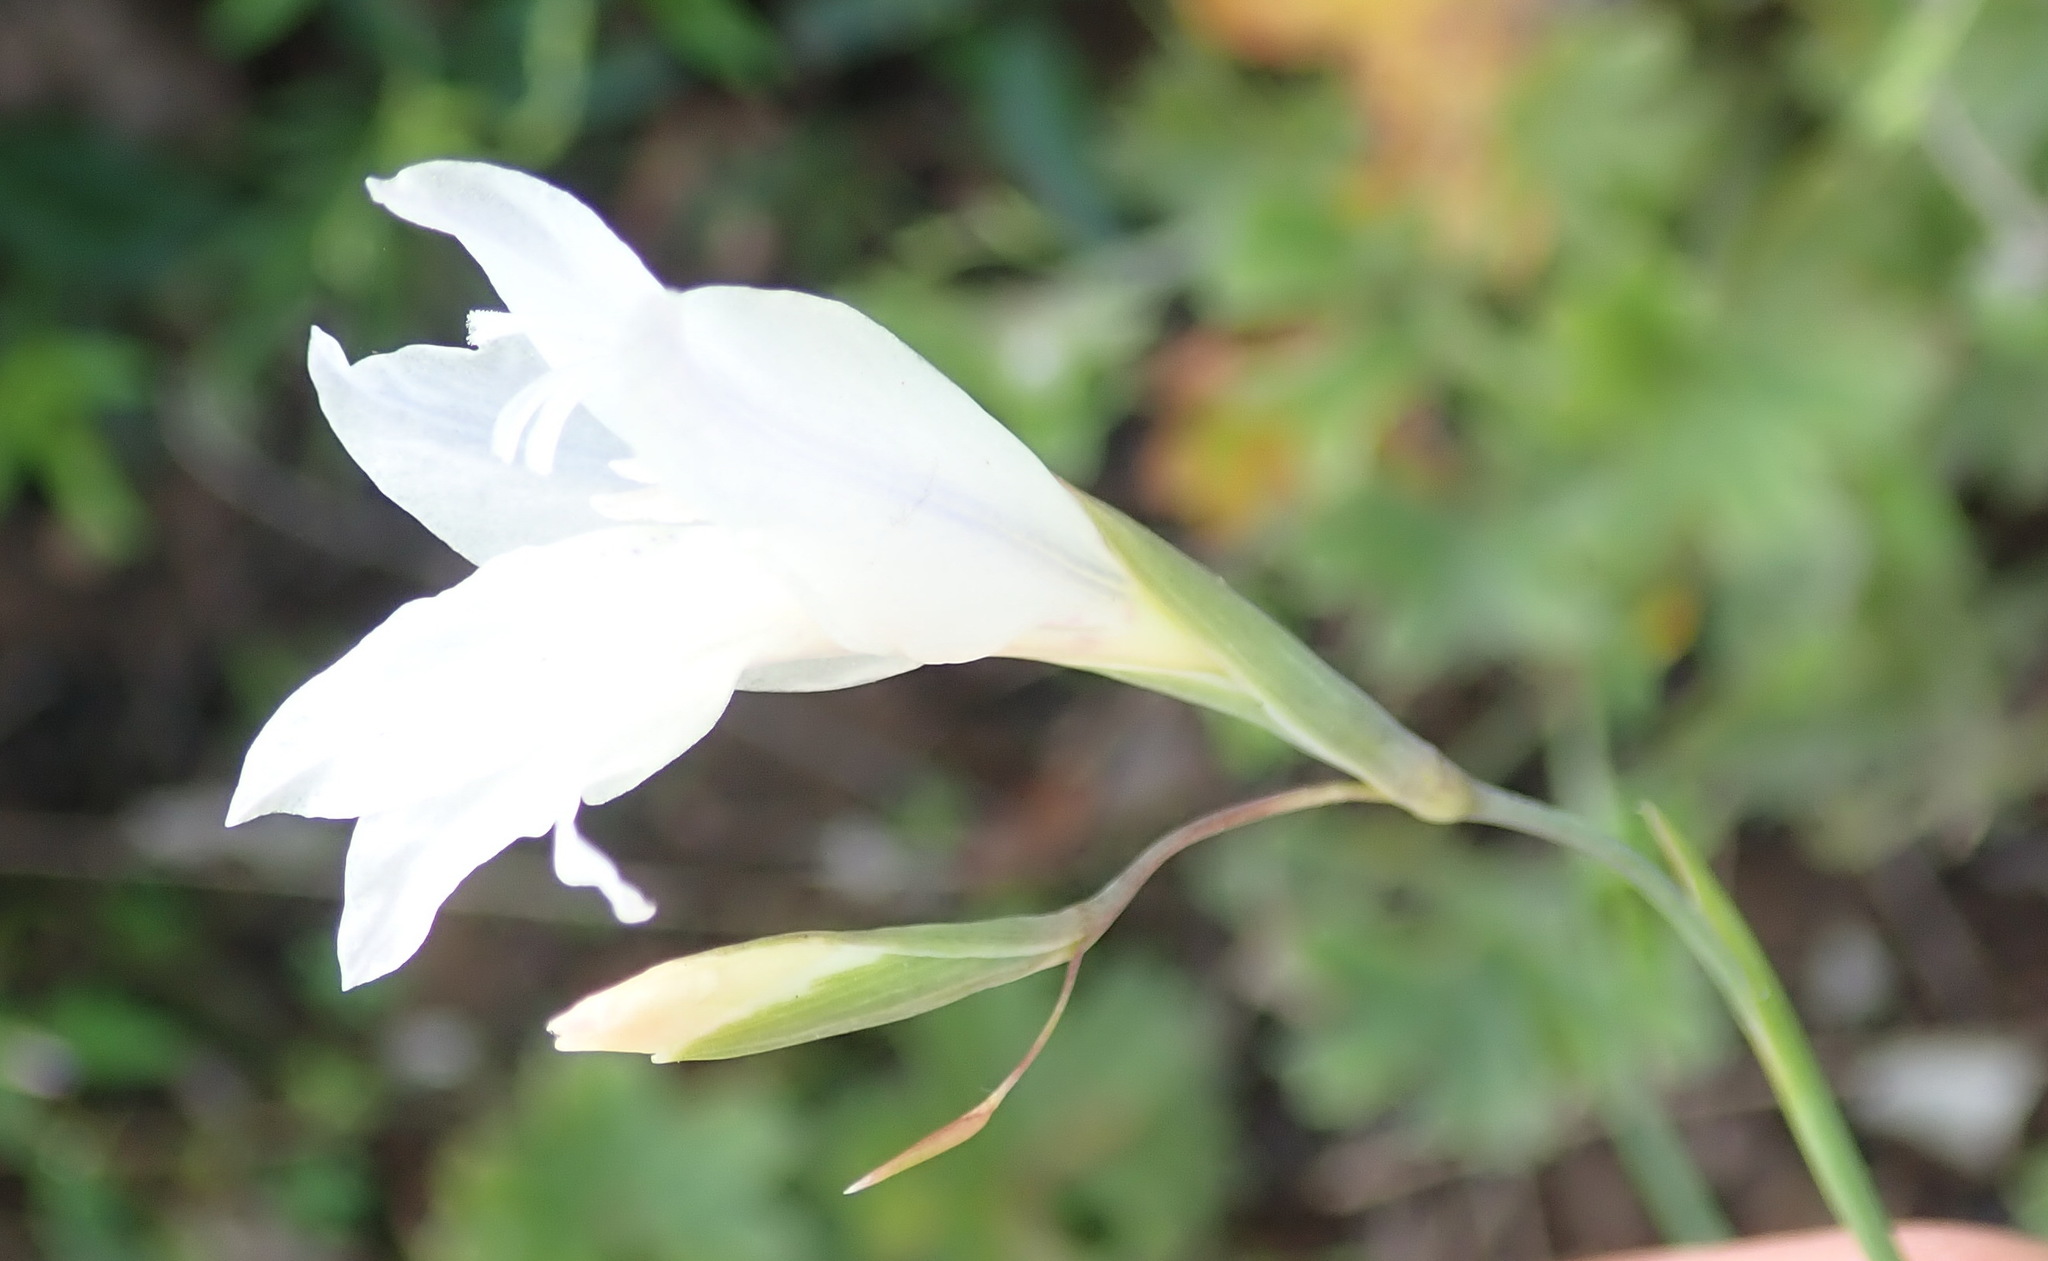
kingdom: Plantae
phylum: Tracheophyta
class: Liliopsida
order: Asparagales
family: Iridaceae
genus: Gladiolus
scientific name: Gladiolus vaginatus
